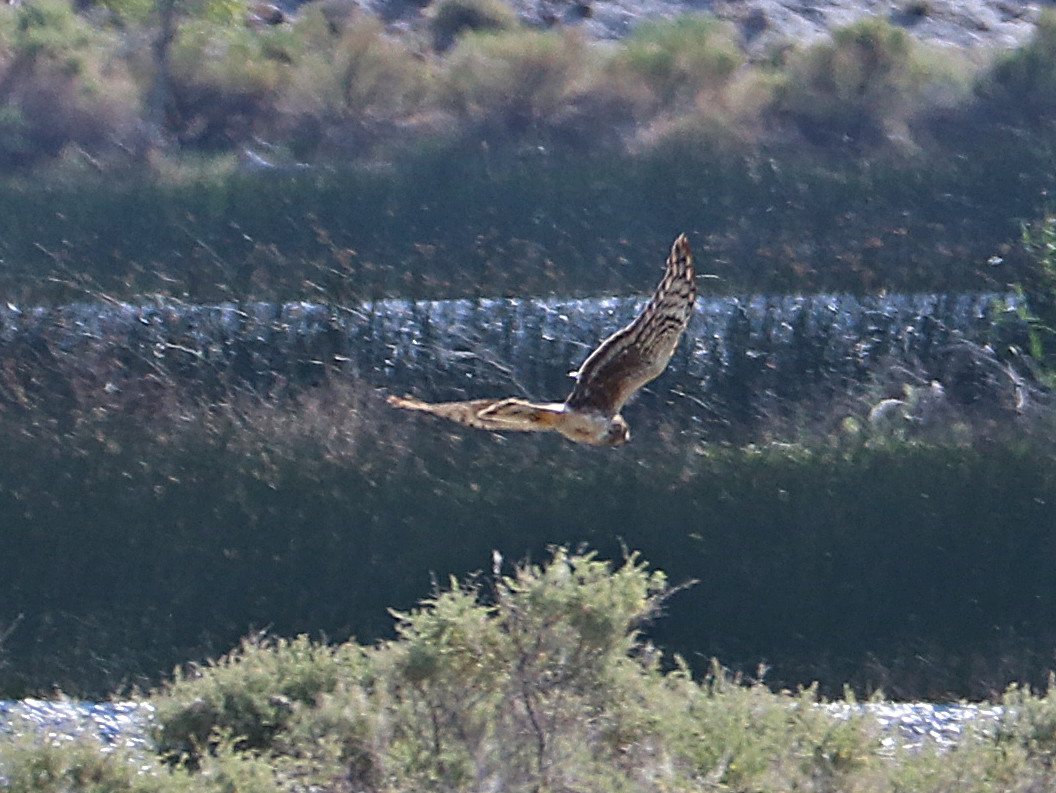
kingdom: Animalia
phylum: Chordata
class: Aves
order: Accipitriformes
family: Accipitridae
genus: Circus
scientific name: Circus cyaneus
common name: Hen harrier
